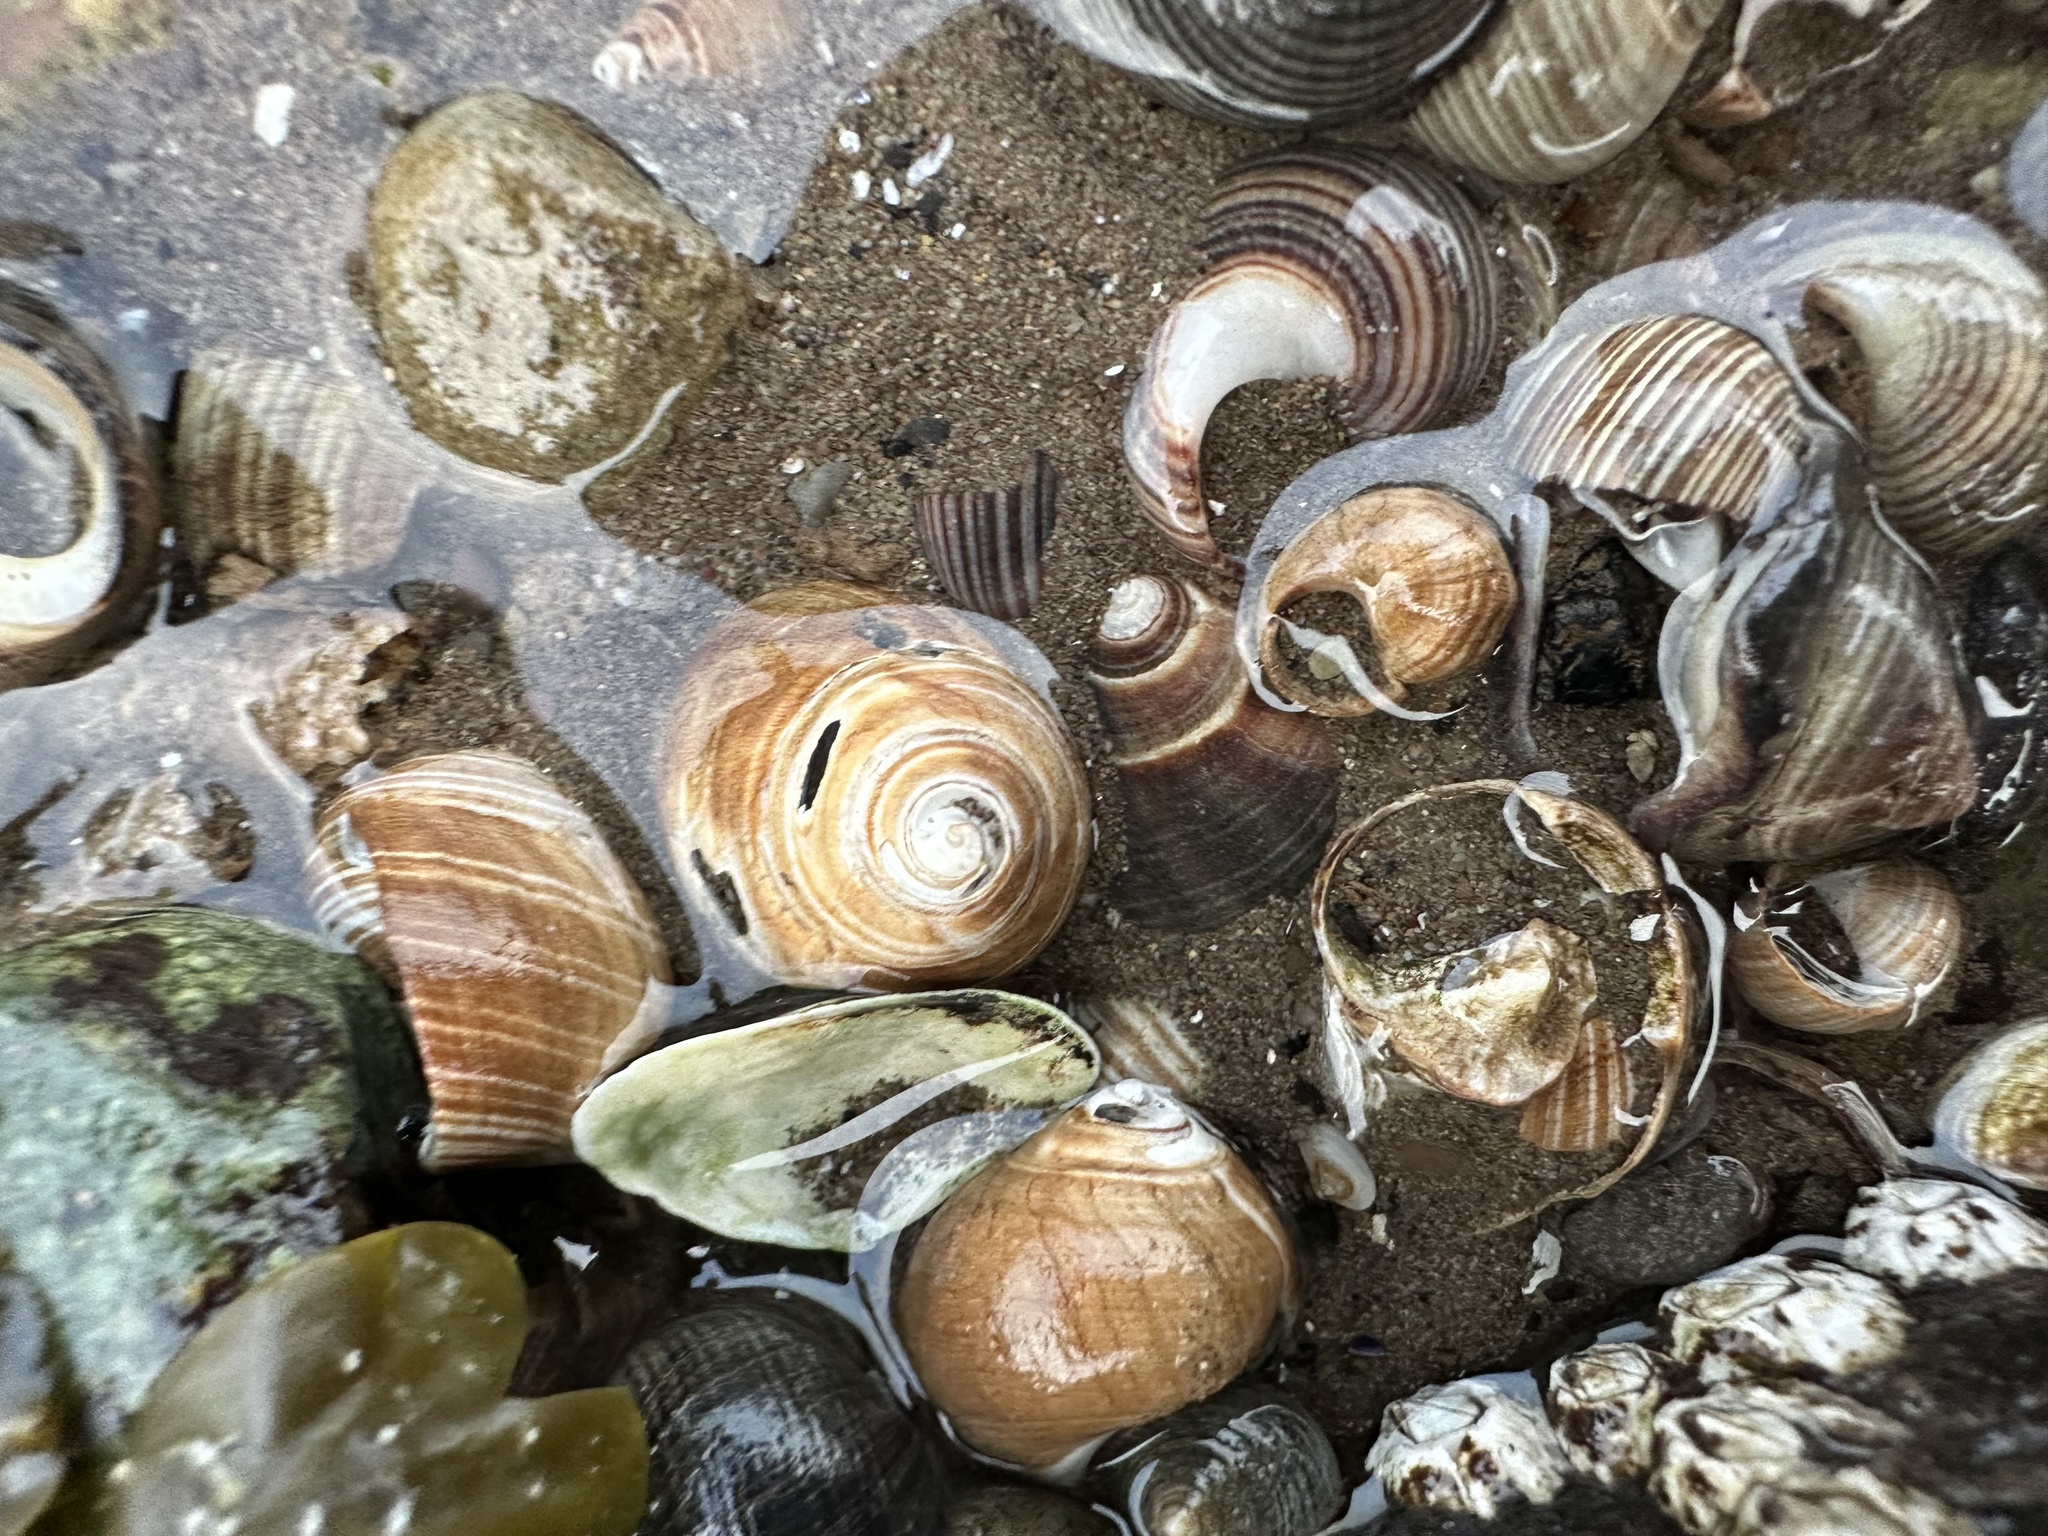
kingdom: Animalia
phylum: Mollusca
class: Gastropoda
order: Littorinimorpha
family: Littorinidae
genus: Littorina
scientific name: Littorina littorea
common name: Common periwinkle
